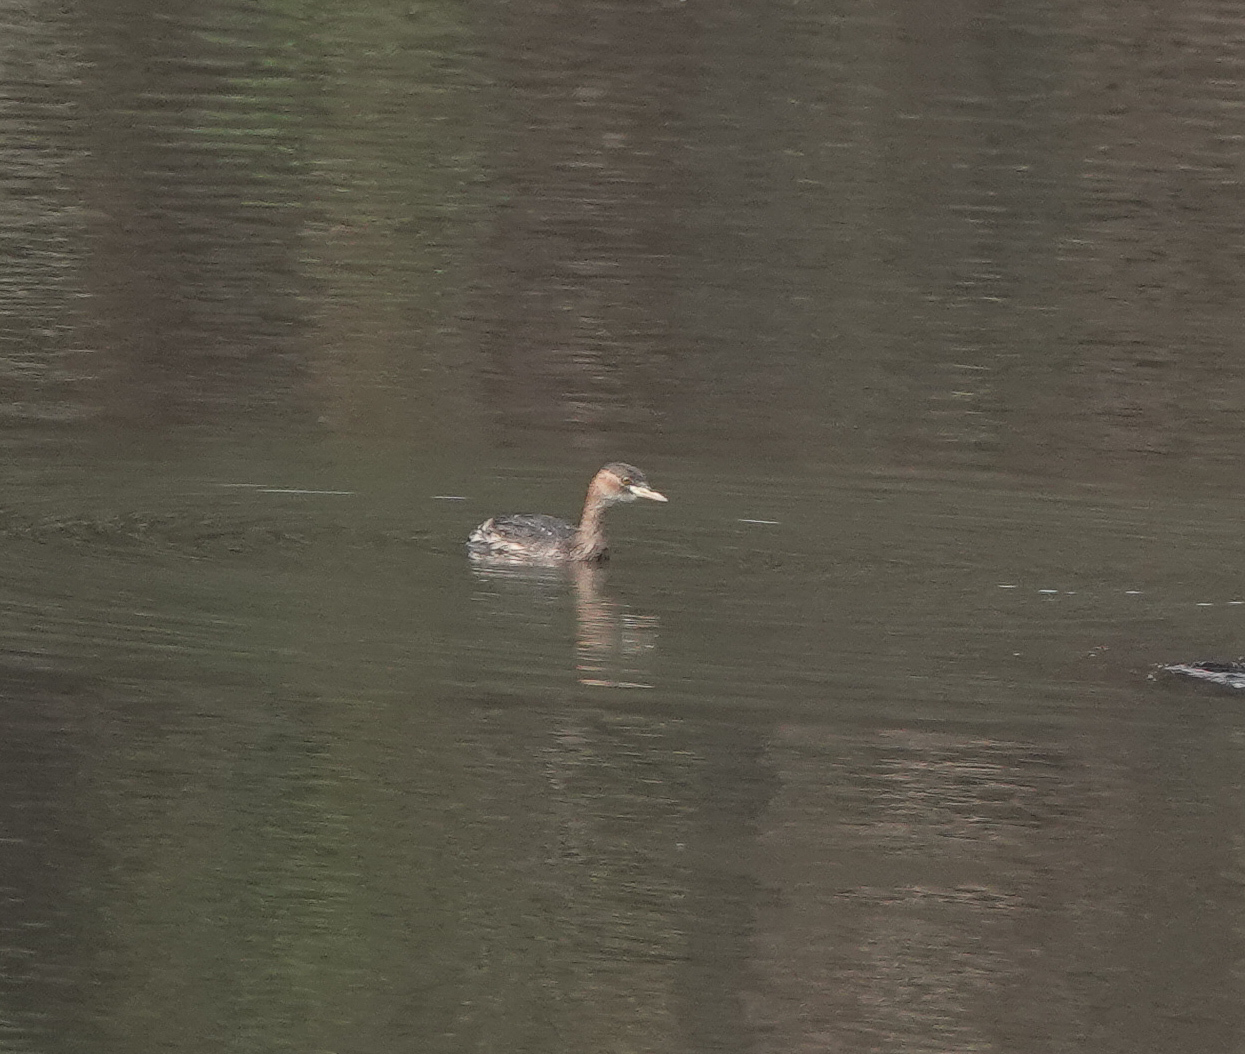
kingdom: Animalia
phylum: Chordata
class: Aves
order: Podicipediformes
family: Podicipedidae
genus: Tachybaptus
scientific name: Tachybaptus ruficollis
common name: Little grebe
